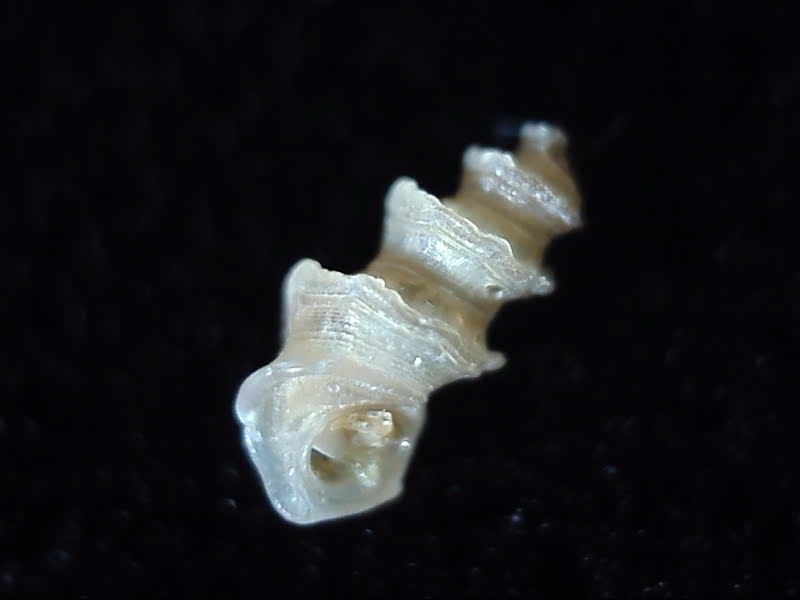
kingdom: Animalia
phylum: Mollusca
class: Gastropoda
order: Littorinimorpha
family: Lironobidae
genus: Merelina
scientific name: Merelina coronata
